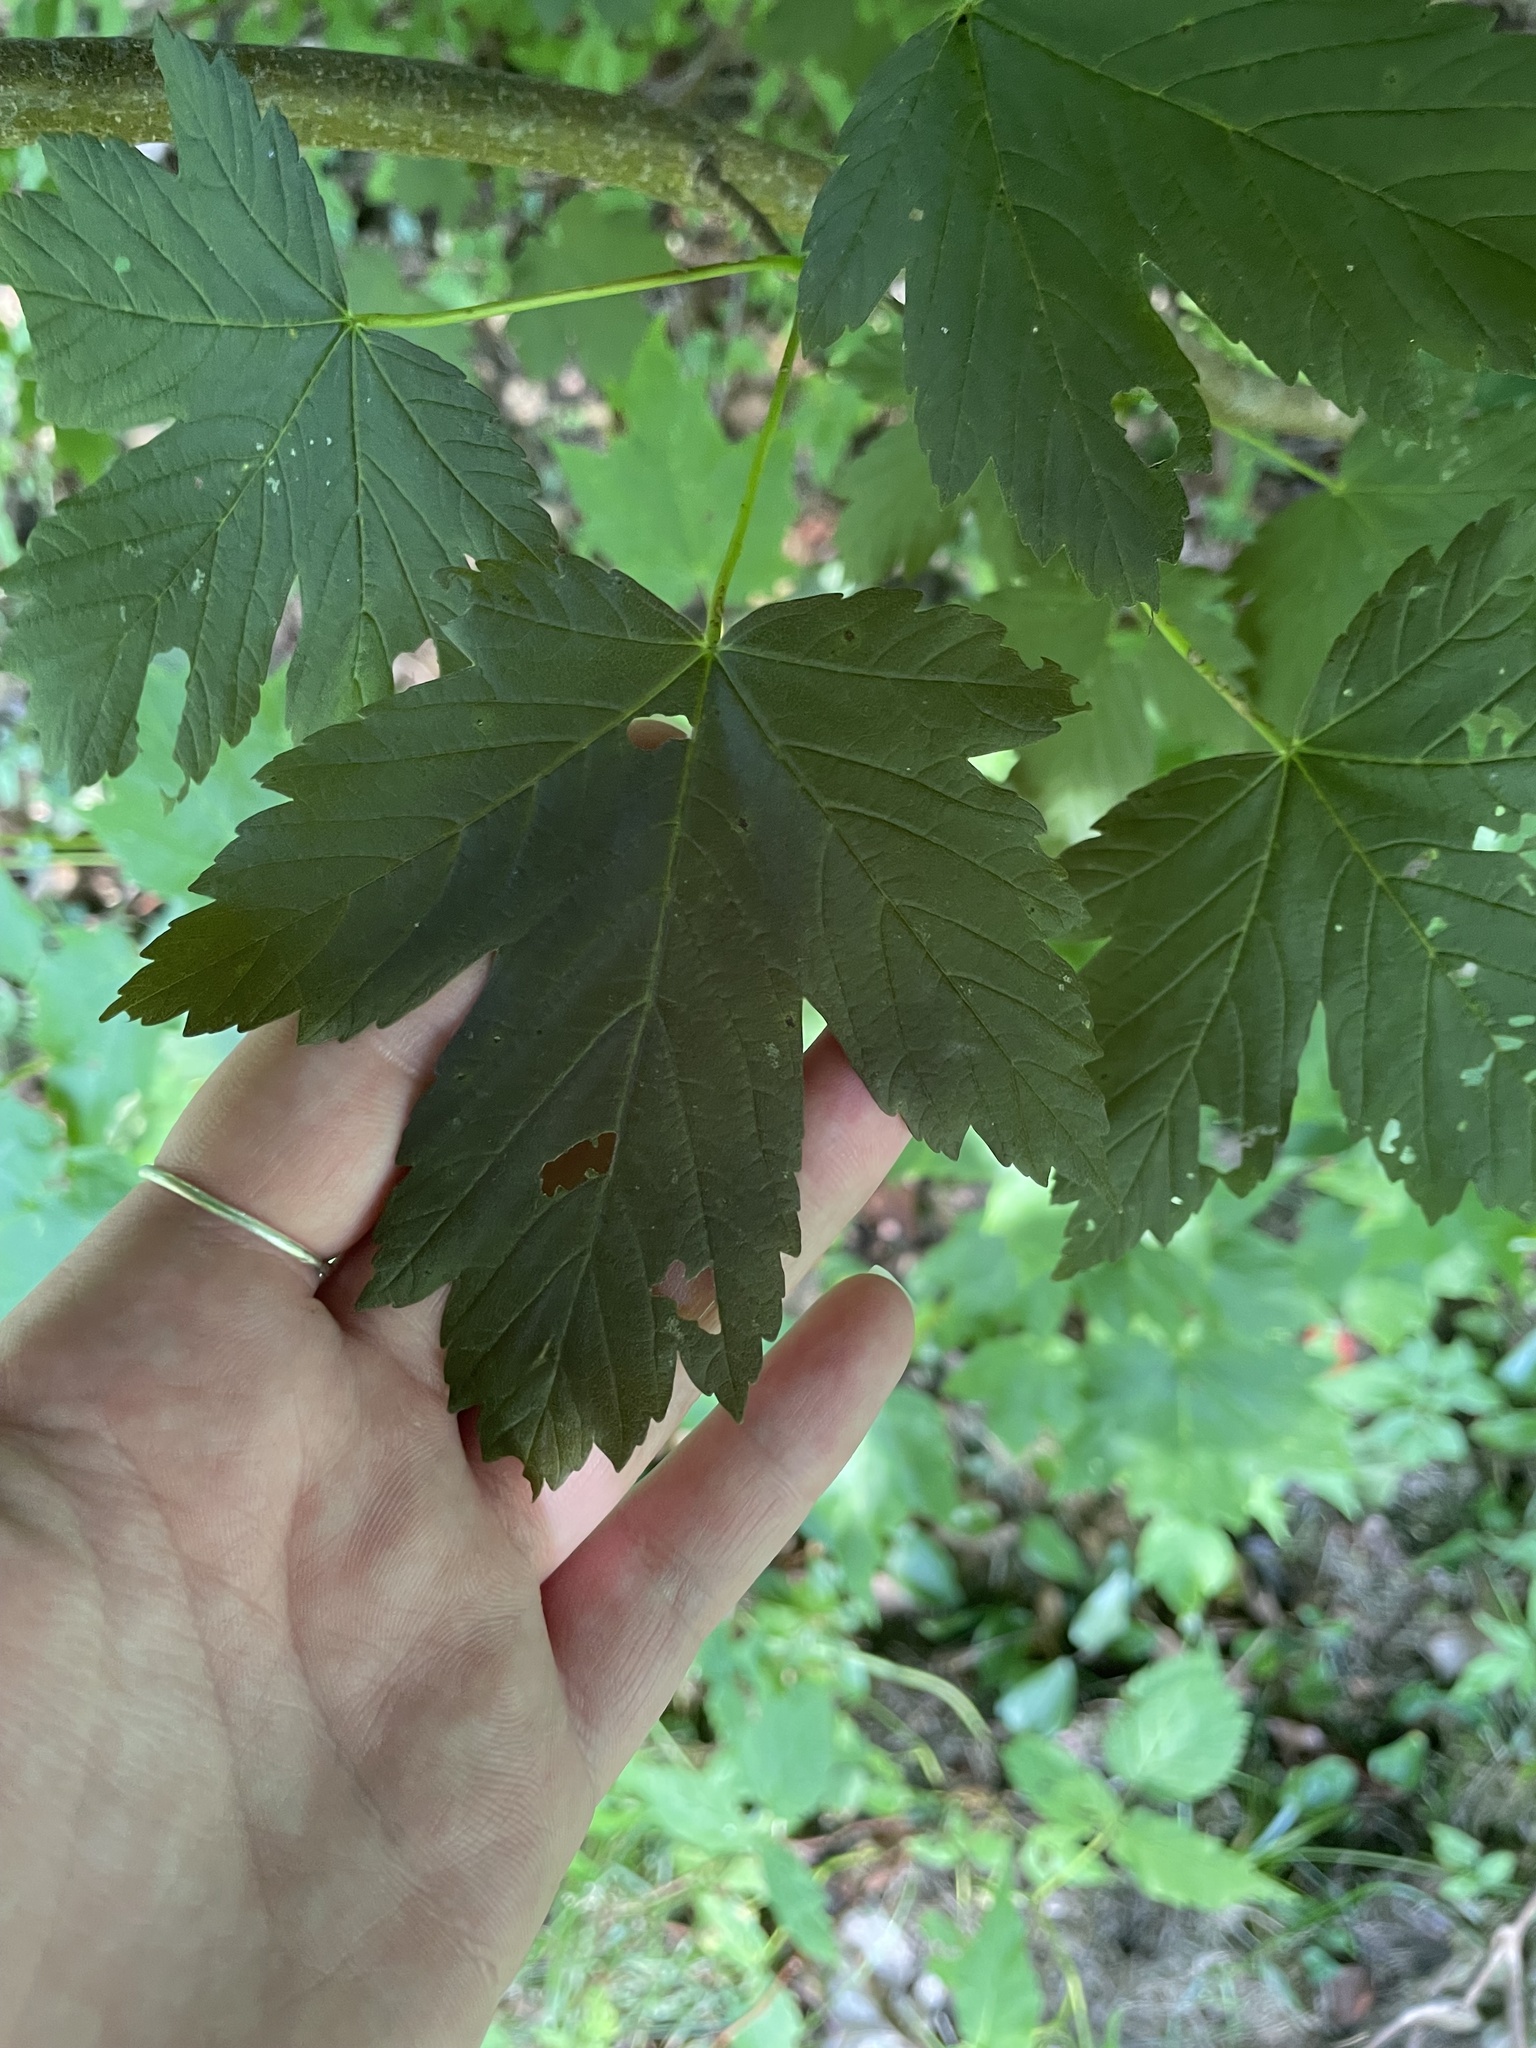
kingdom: Plantae
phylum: Tracheophyta
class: Magnoliopsida
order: Sapindales
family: Sapindaceae
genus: Acer
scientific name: Acer pseudoplatanus
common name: Sycamore
